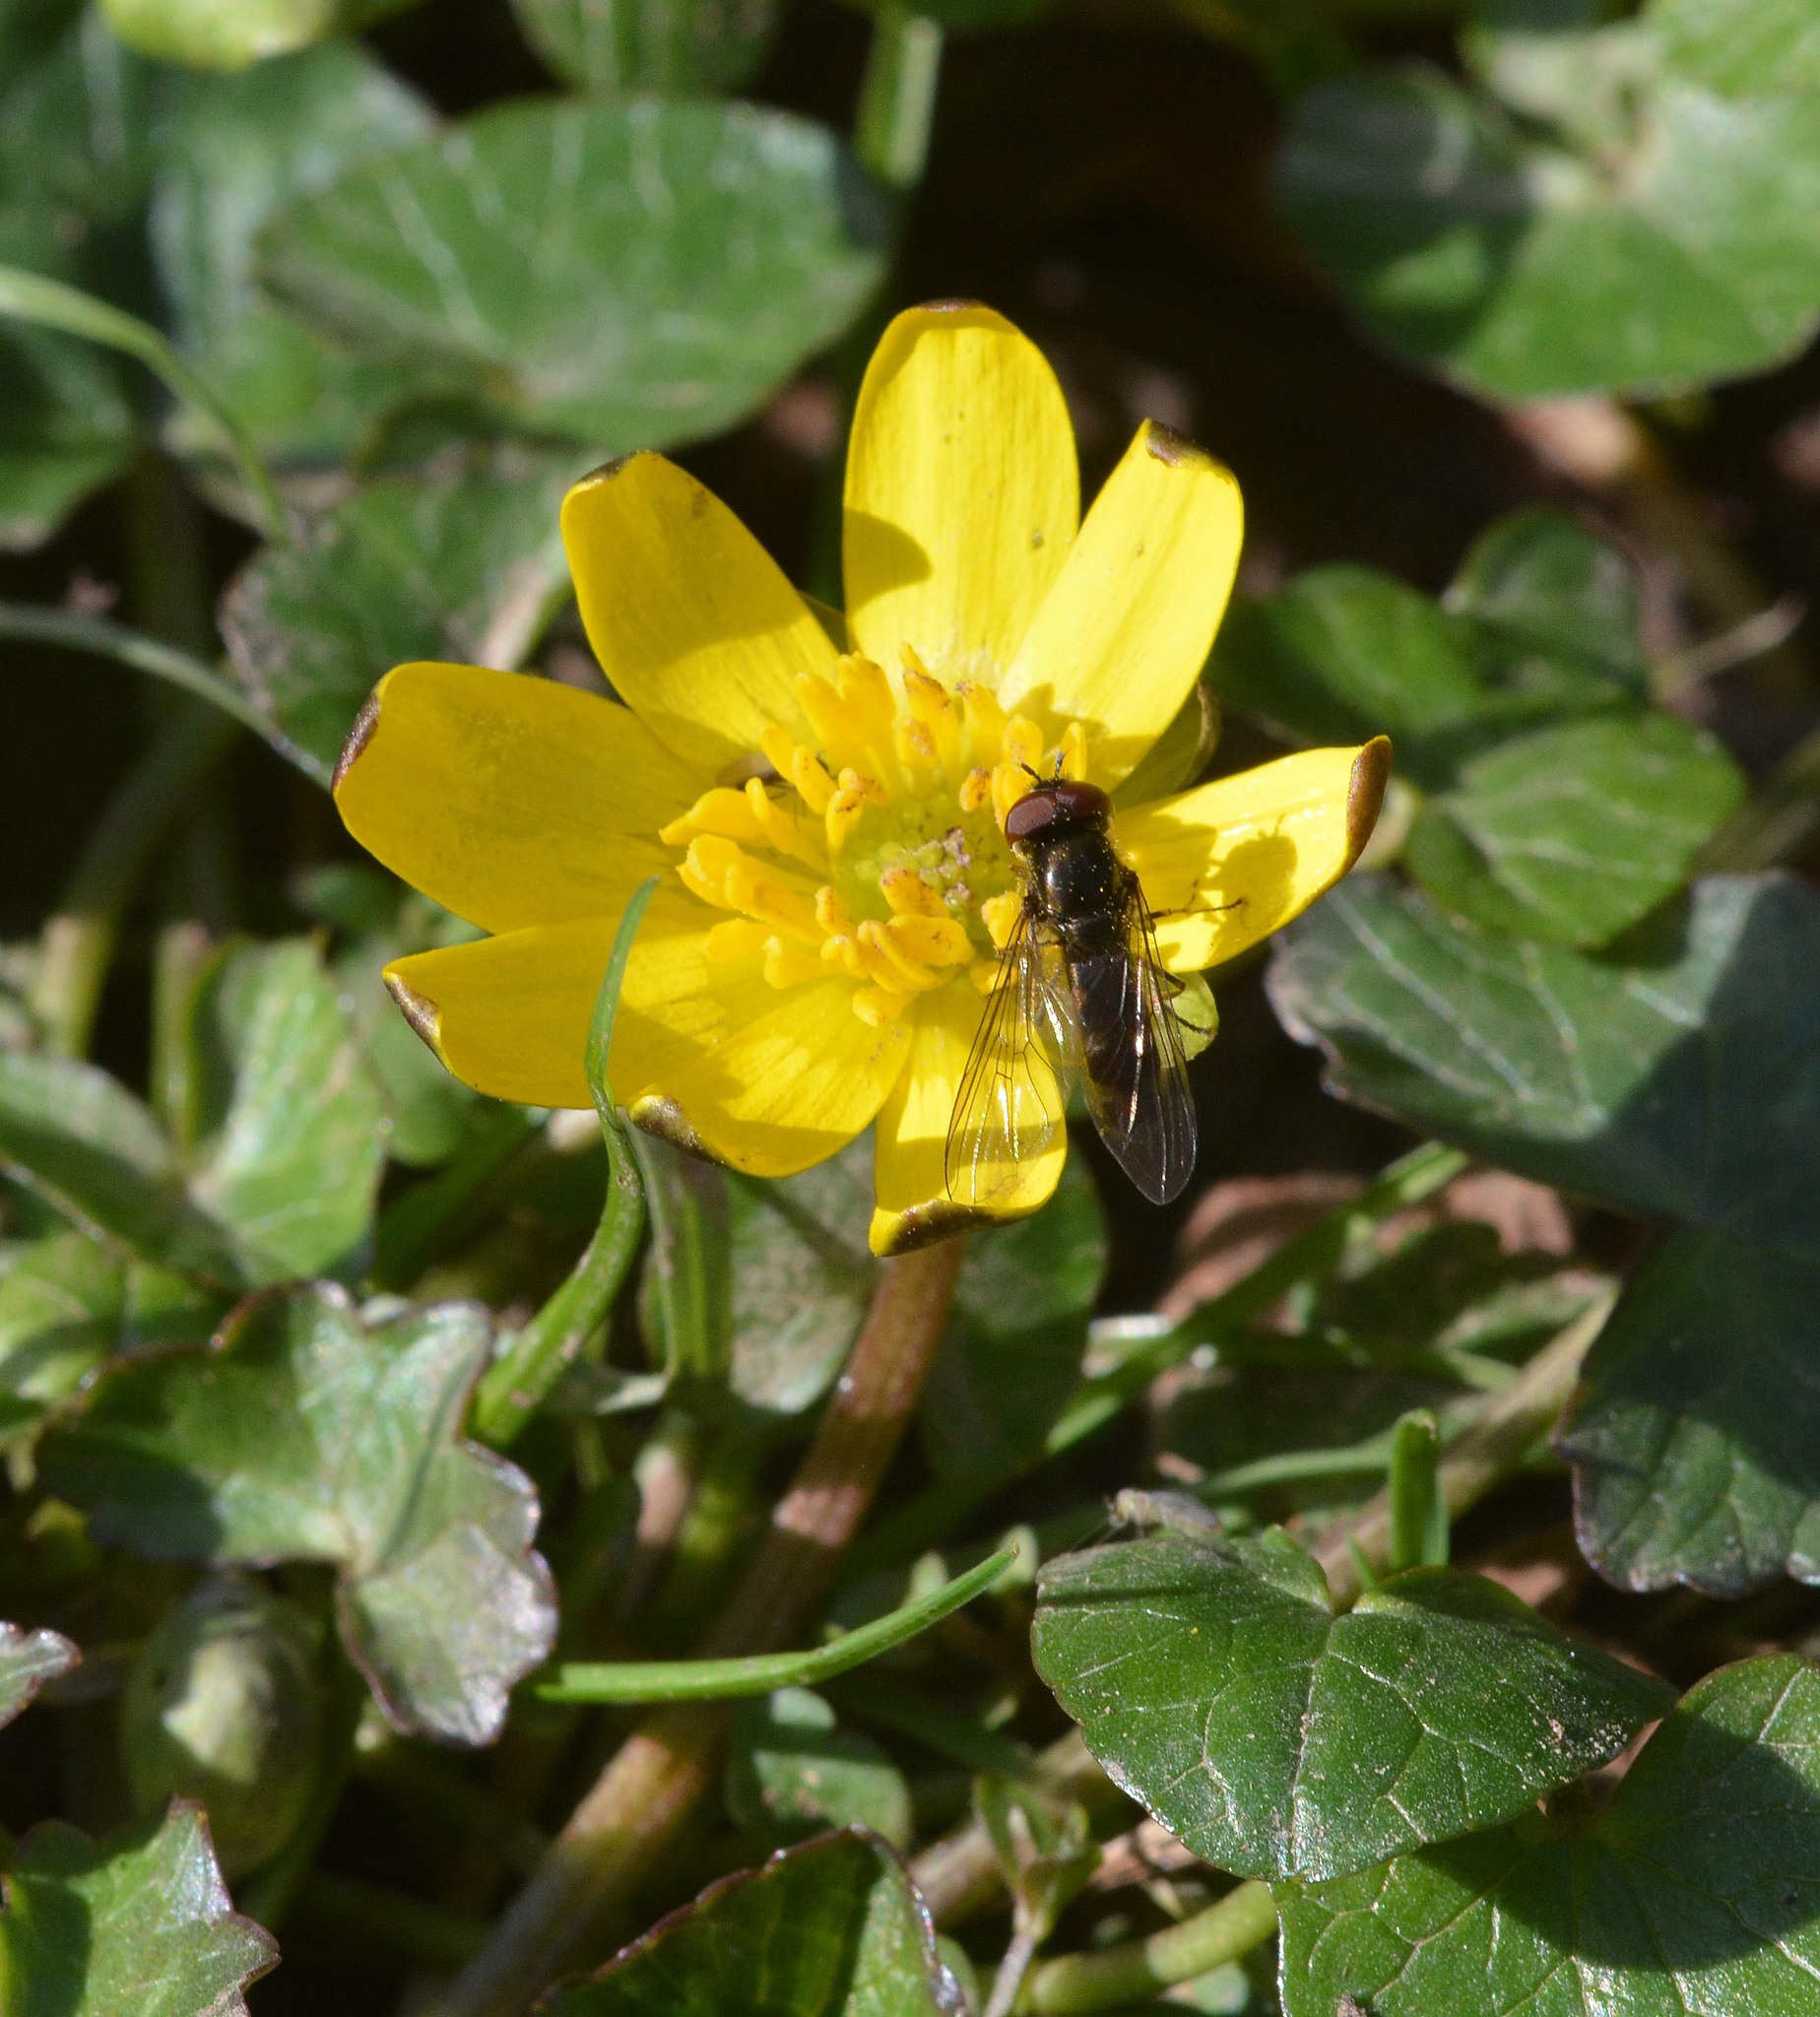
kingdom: Animalia
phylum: Arthropoda
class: Insecta
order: Diptera
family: Syrphidae
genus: Platycheirus
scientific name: Platycheirus
